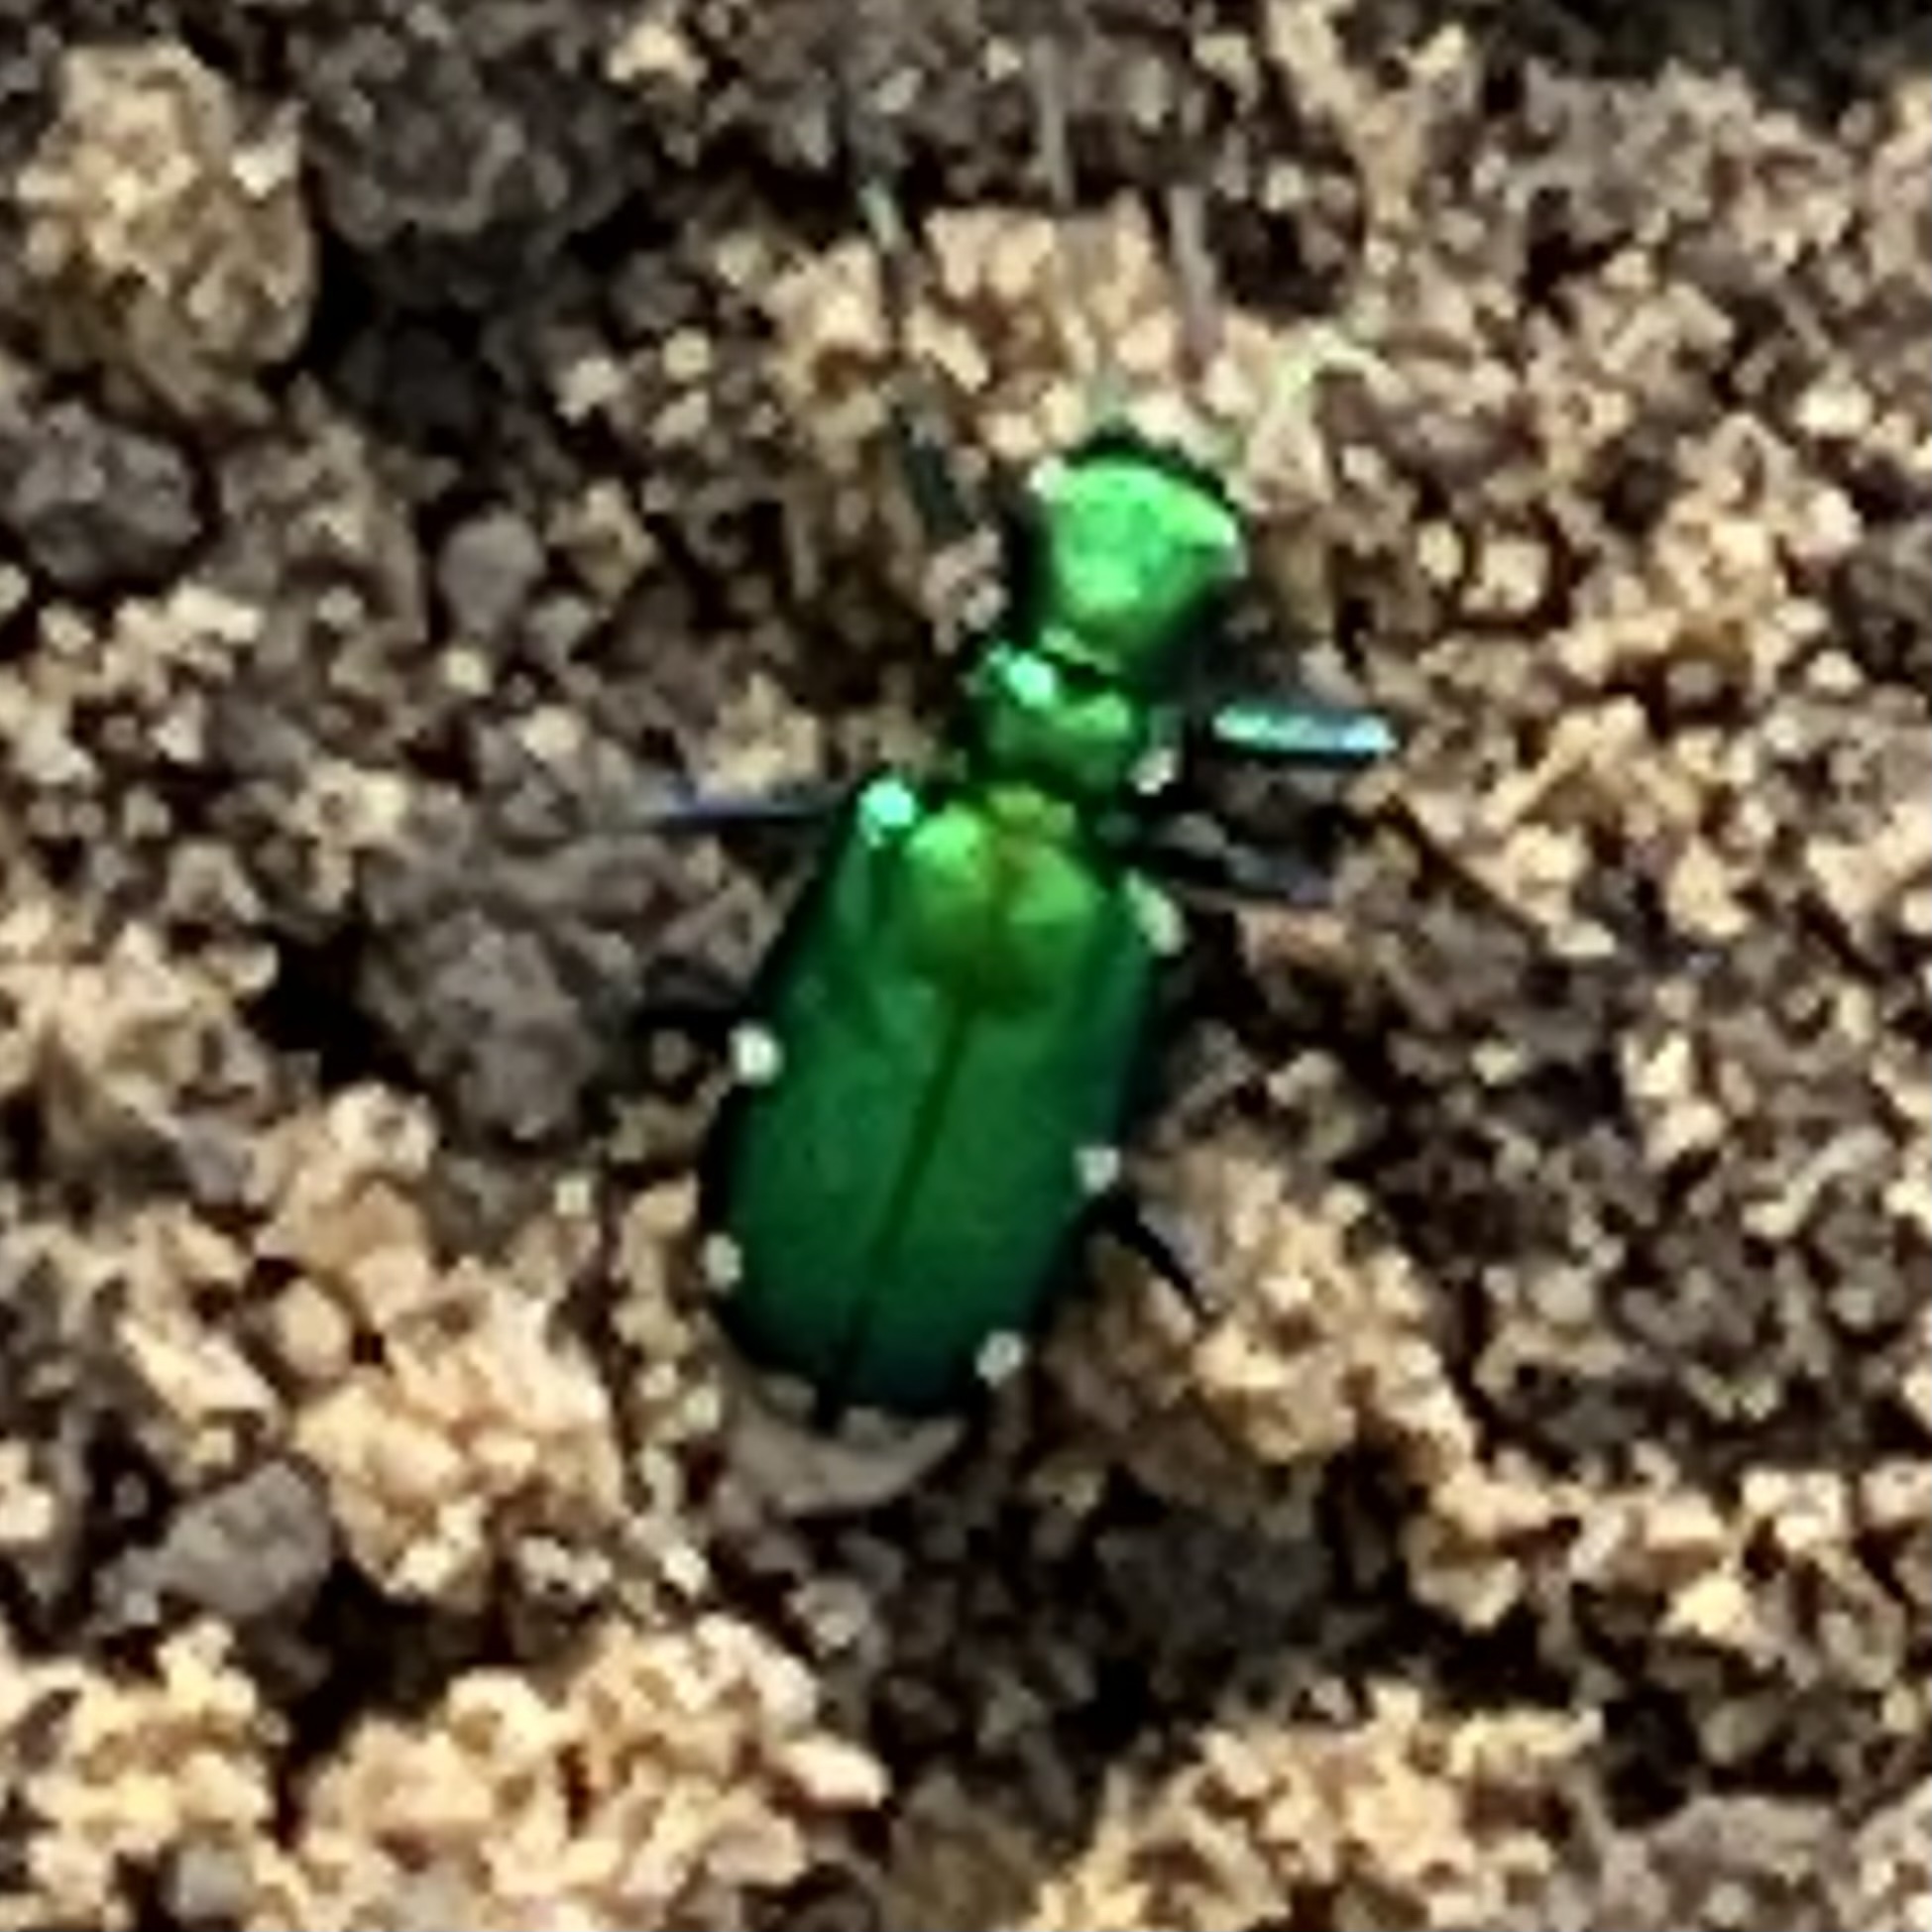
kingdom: Animalia
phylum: Arthropoda
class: Insecta
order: Coleoptera
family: Carabidae
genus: Cicindela
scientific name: Cicindela sexguttata
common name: Six-spotted tiger beetle
